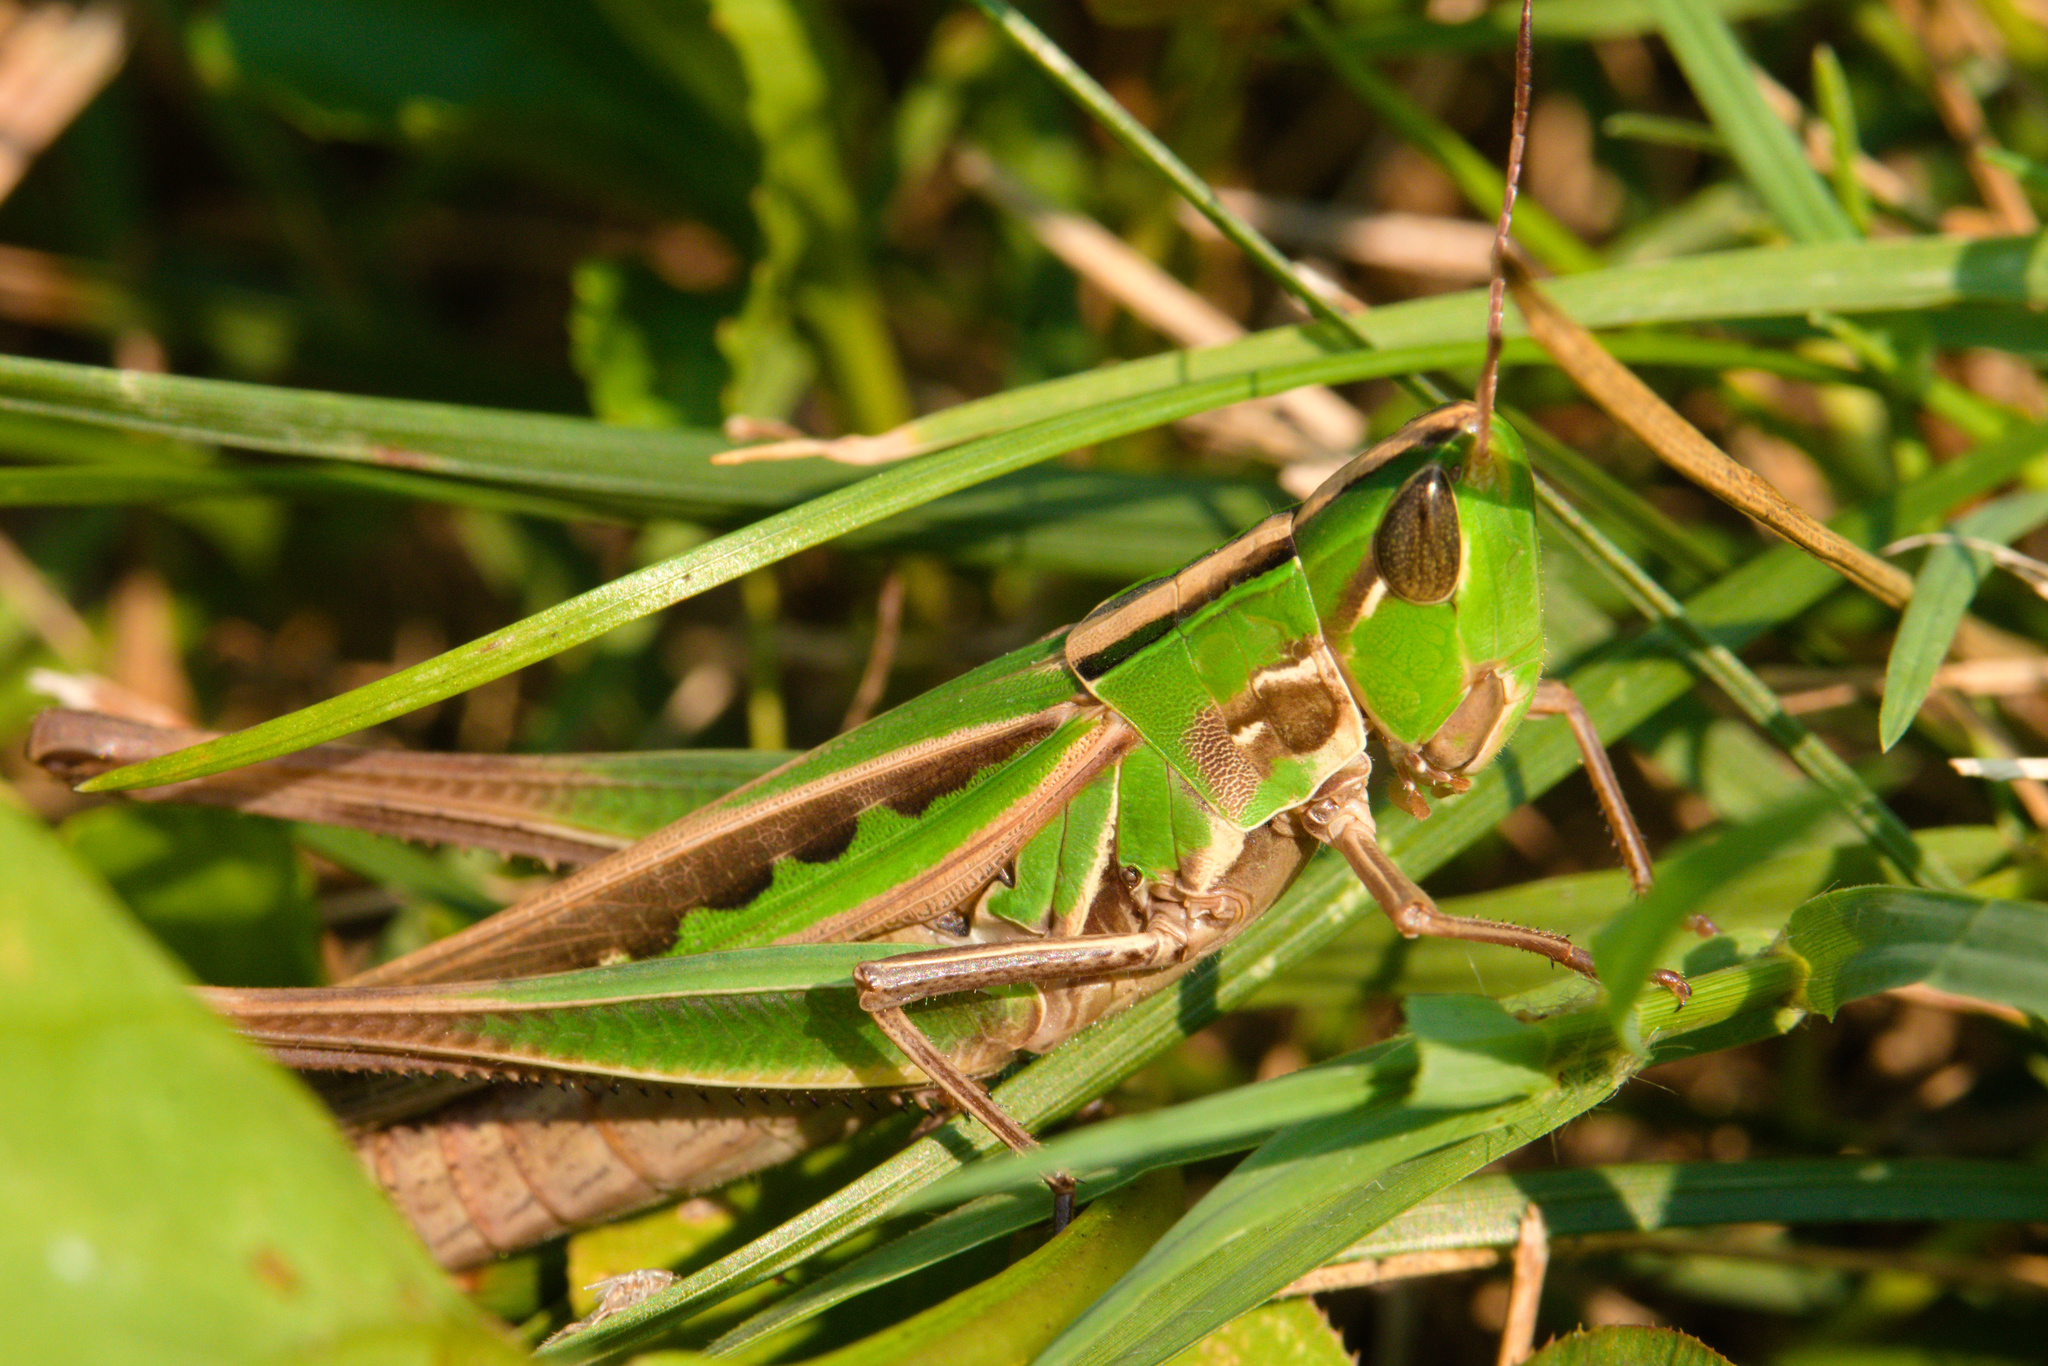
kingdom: Animalia
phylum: Arthropoda
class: Insecta
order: Orthoptera
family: Acrididae
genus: Syrbula
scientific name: Syrbula admirabilis
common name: Handsome grasshopper
